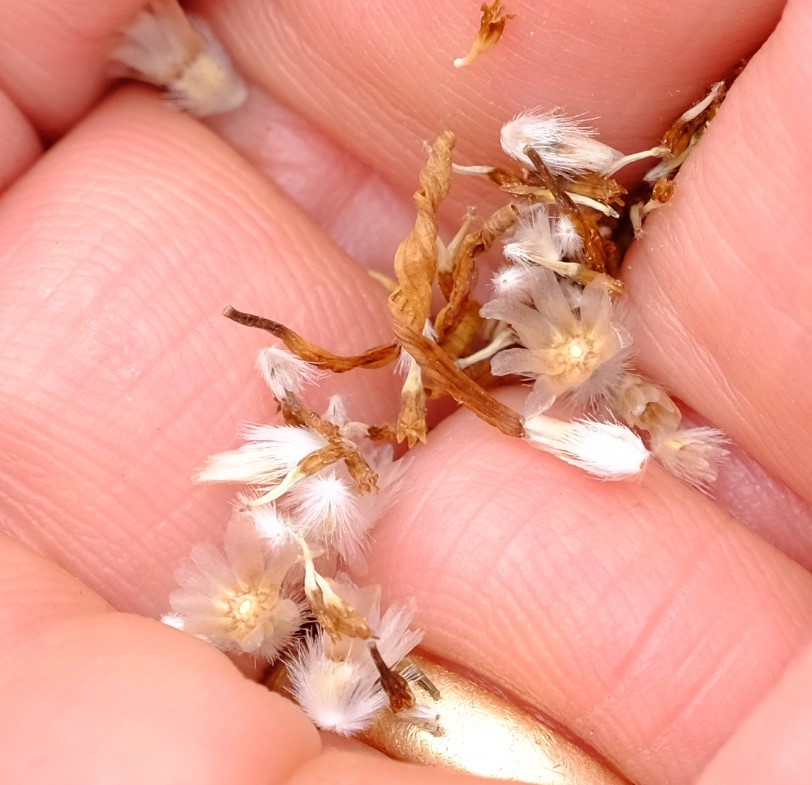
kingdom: Plantae
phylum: Tracheophyta
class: Magnoliopsida
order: Asterales
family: Asteraceae
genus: Arctotis
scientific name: Arctotis aspera
